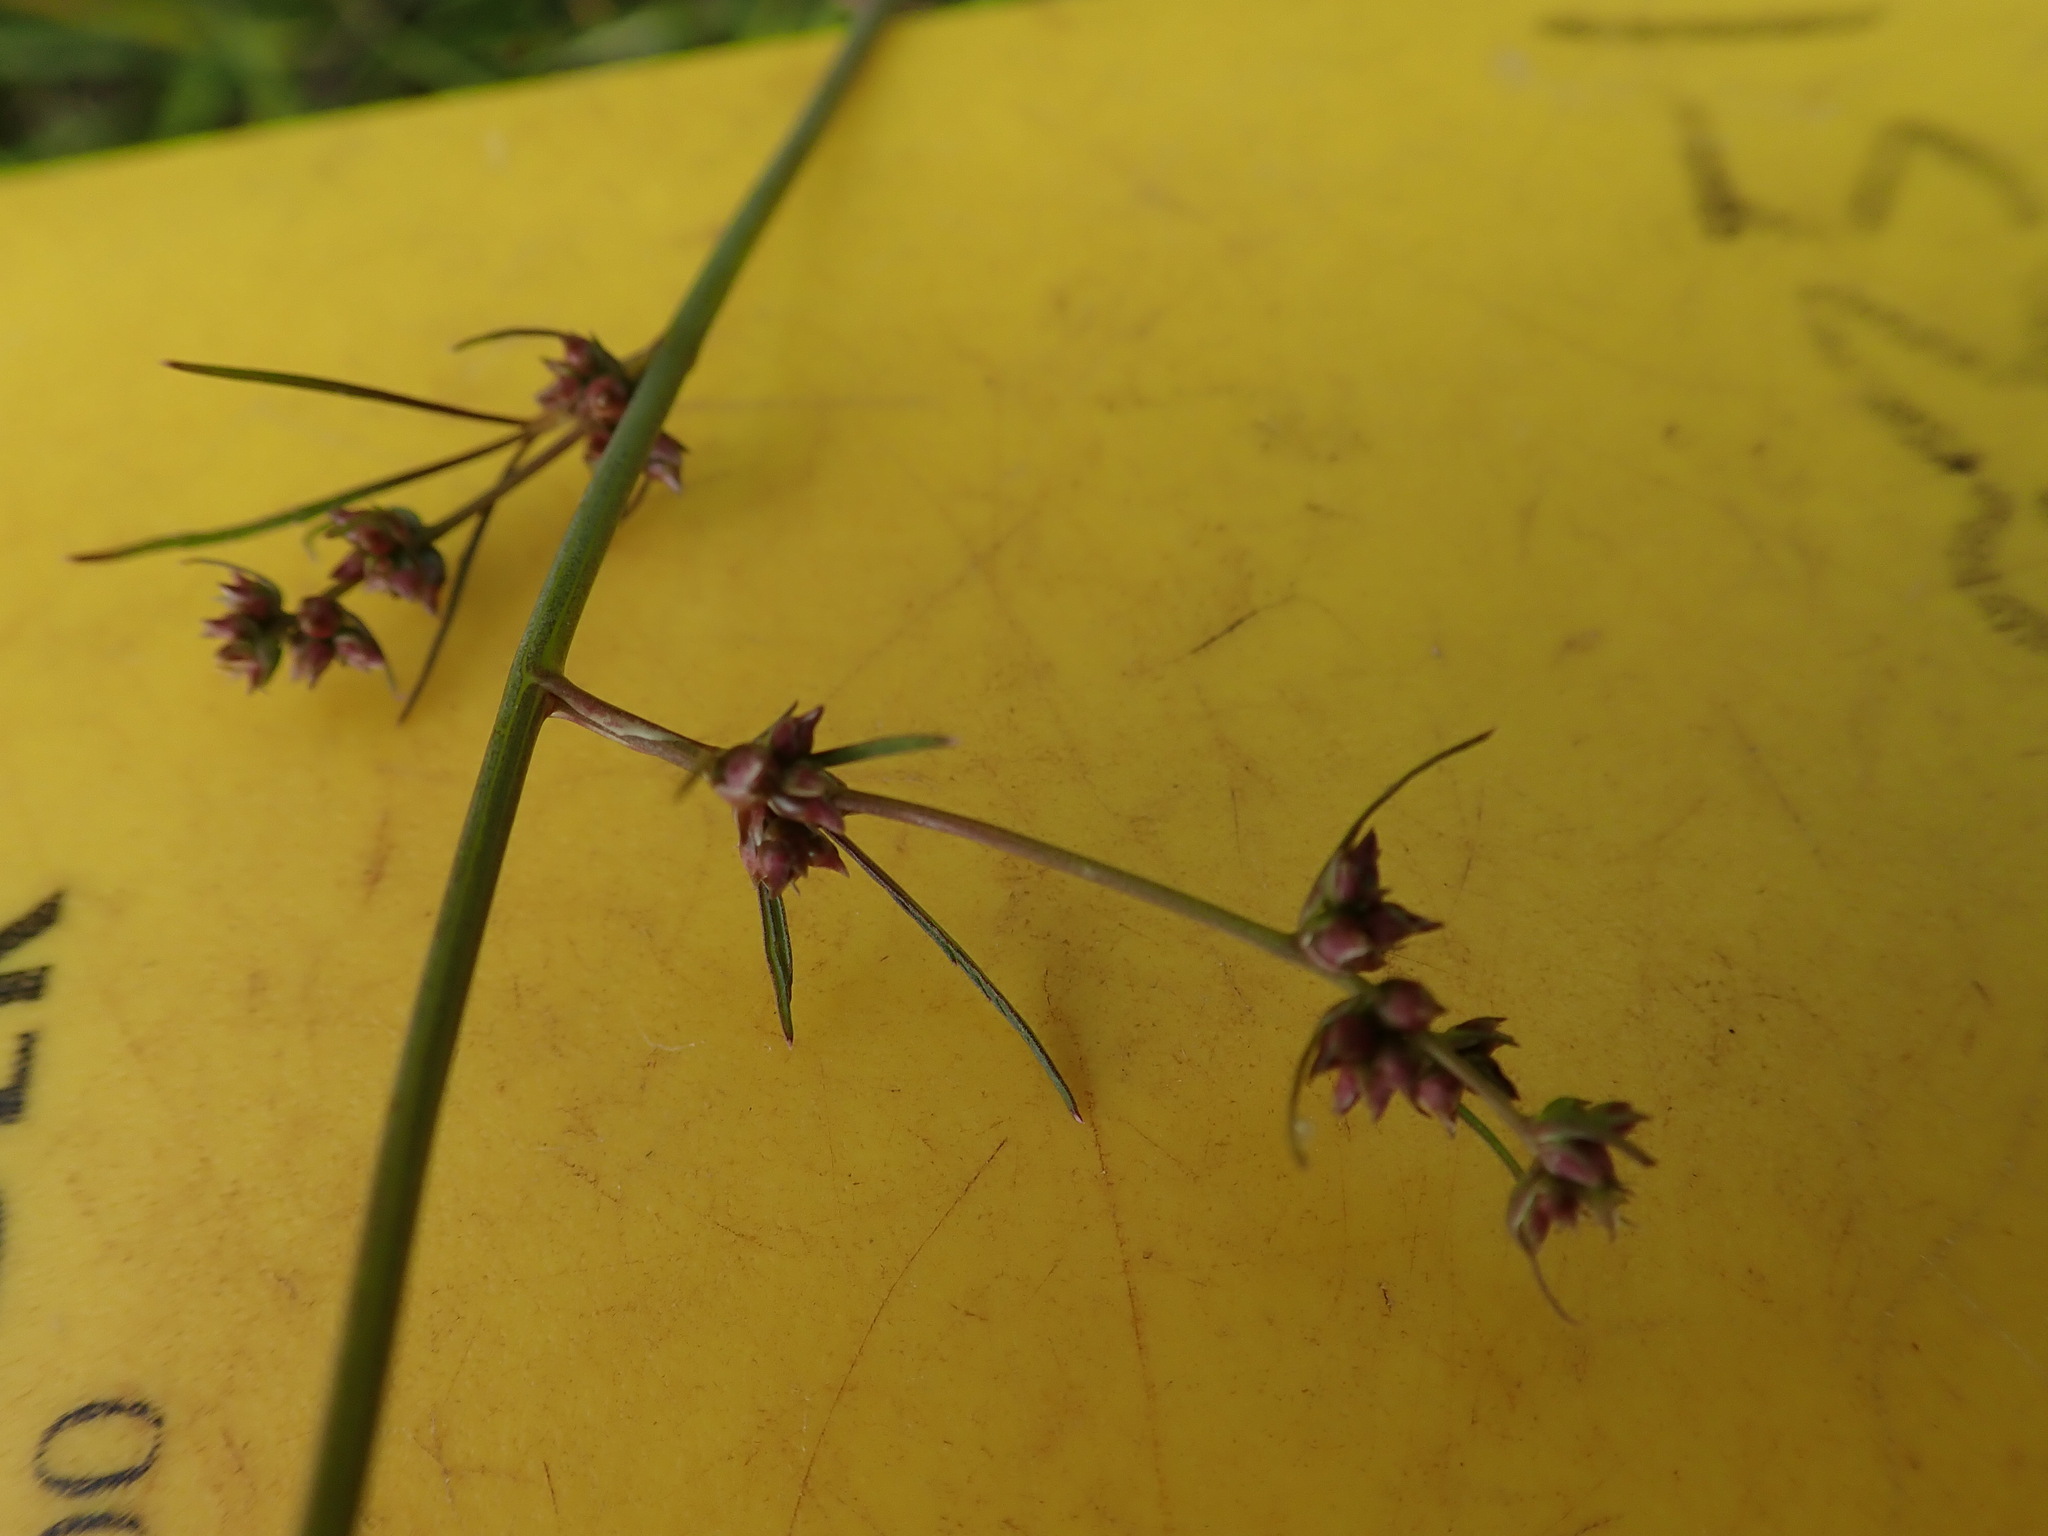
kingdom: Plantae
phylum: Tracheophyta
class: Magnoliopsida
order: Apiales
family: Apiaceae
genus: Cicuta
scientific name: Cicuta bulbifera
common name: Bulb-bearing water-hemlock
